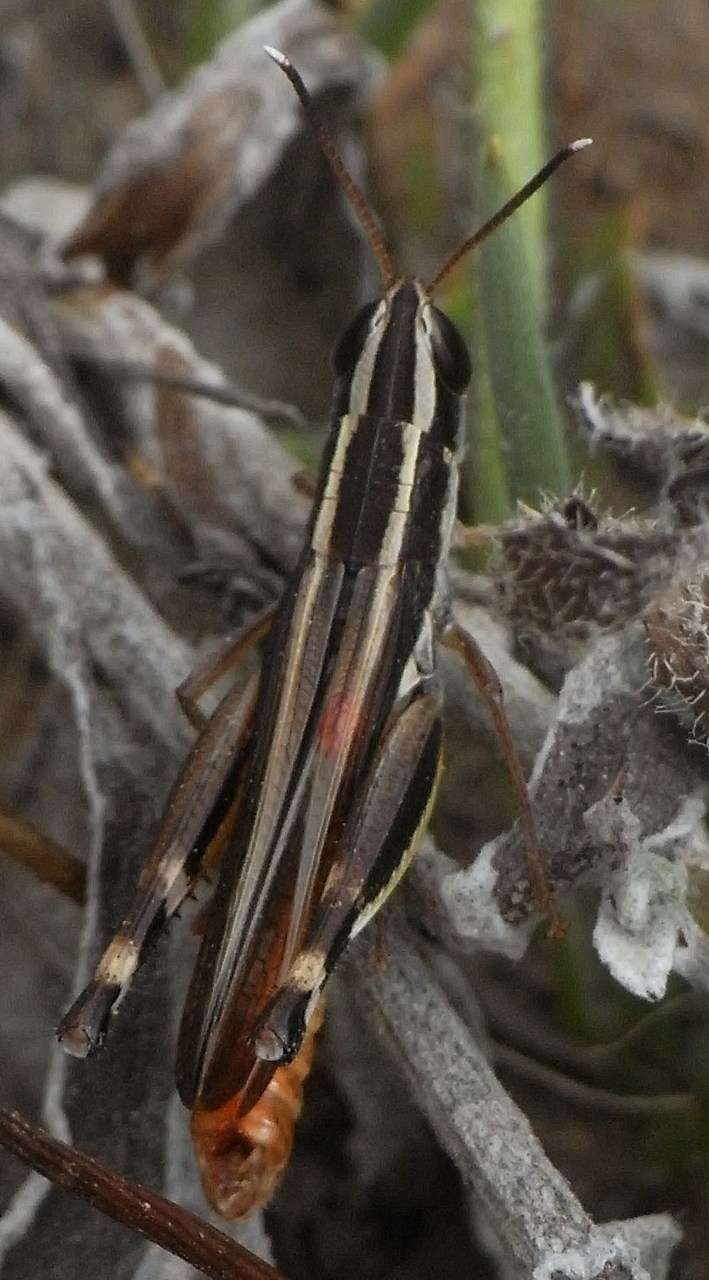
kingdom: Animalia
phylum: Arthropoda
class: Insecta
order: Orthoptera
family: Acrididae
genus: Macrotona
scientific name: Macrotona australis
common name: Common macrotona
